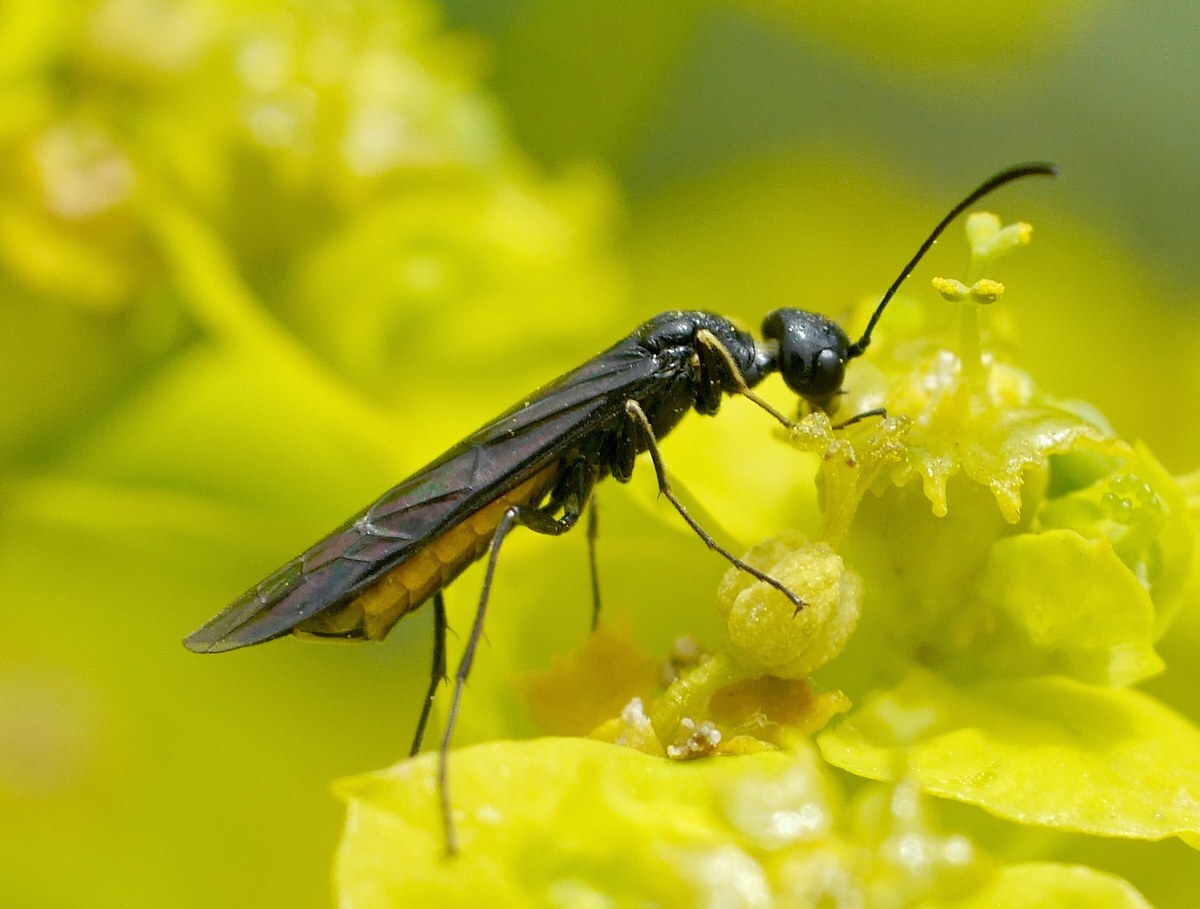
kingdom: Animalia
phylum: Arthropoda
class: Insecta
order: Hymenoptera
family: Cephidae
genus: Trachelus
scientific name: Trachelus tabidus
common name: Wasp
